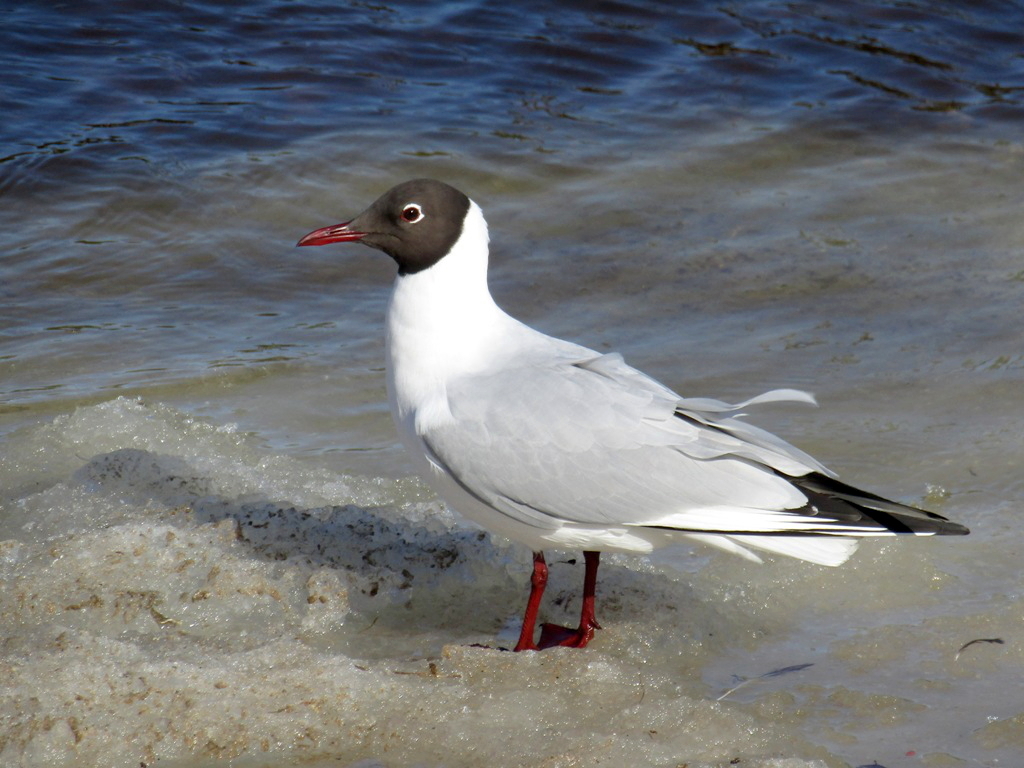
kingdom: Animalia
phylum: Chordata
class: Aves
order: Charadriiformes
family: Laridae
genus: Chroicocephalus
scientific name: Chroicocephalus ridibundus
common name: Black-headed gull
